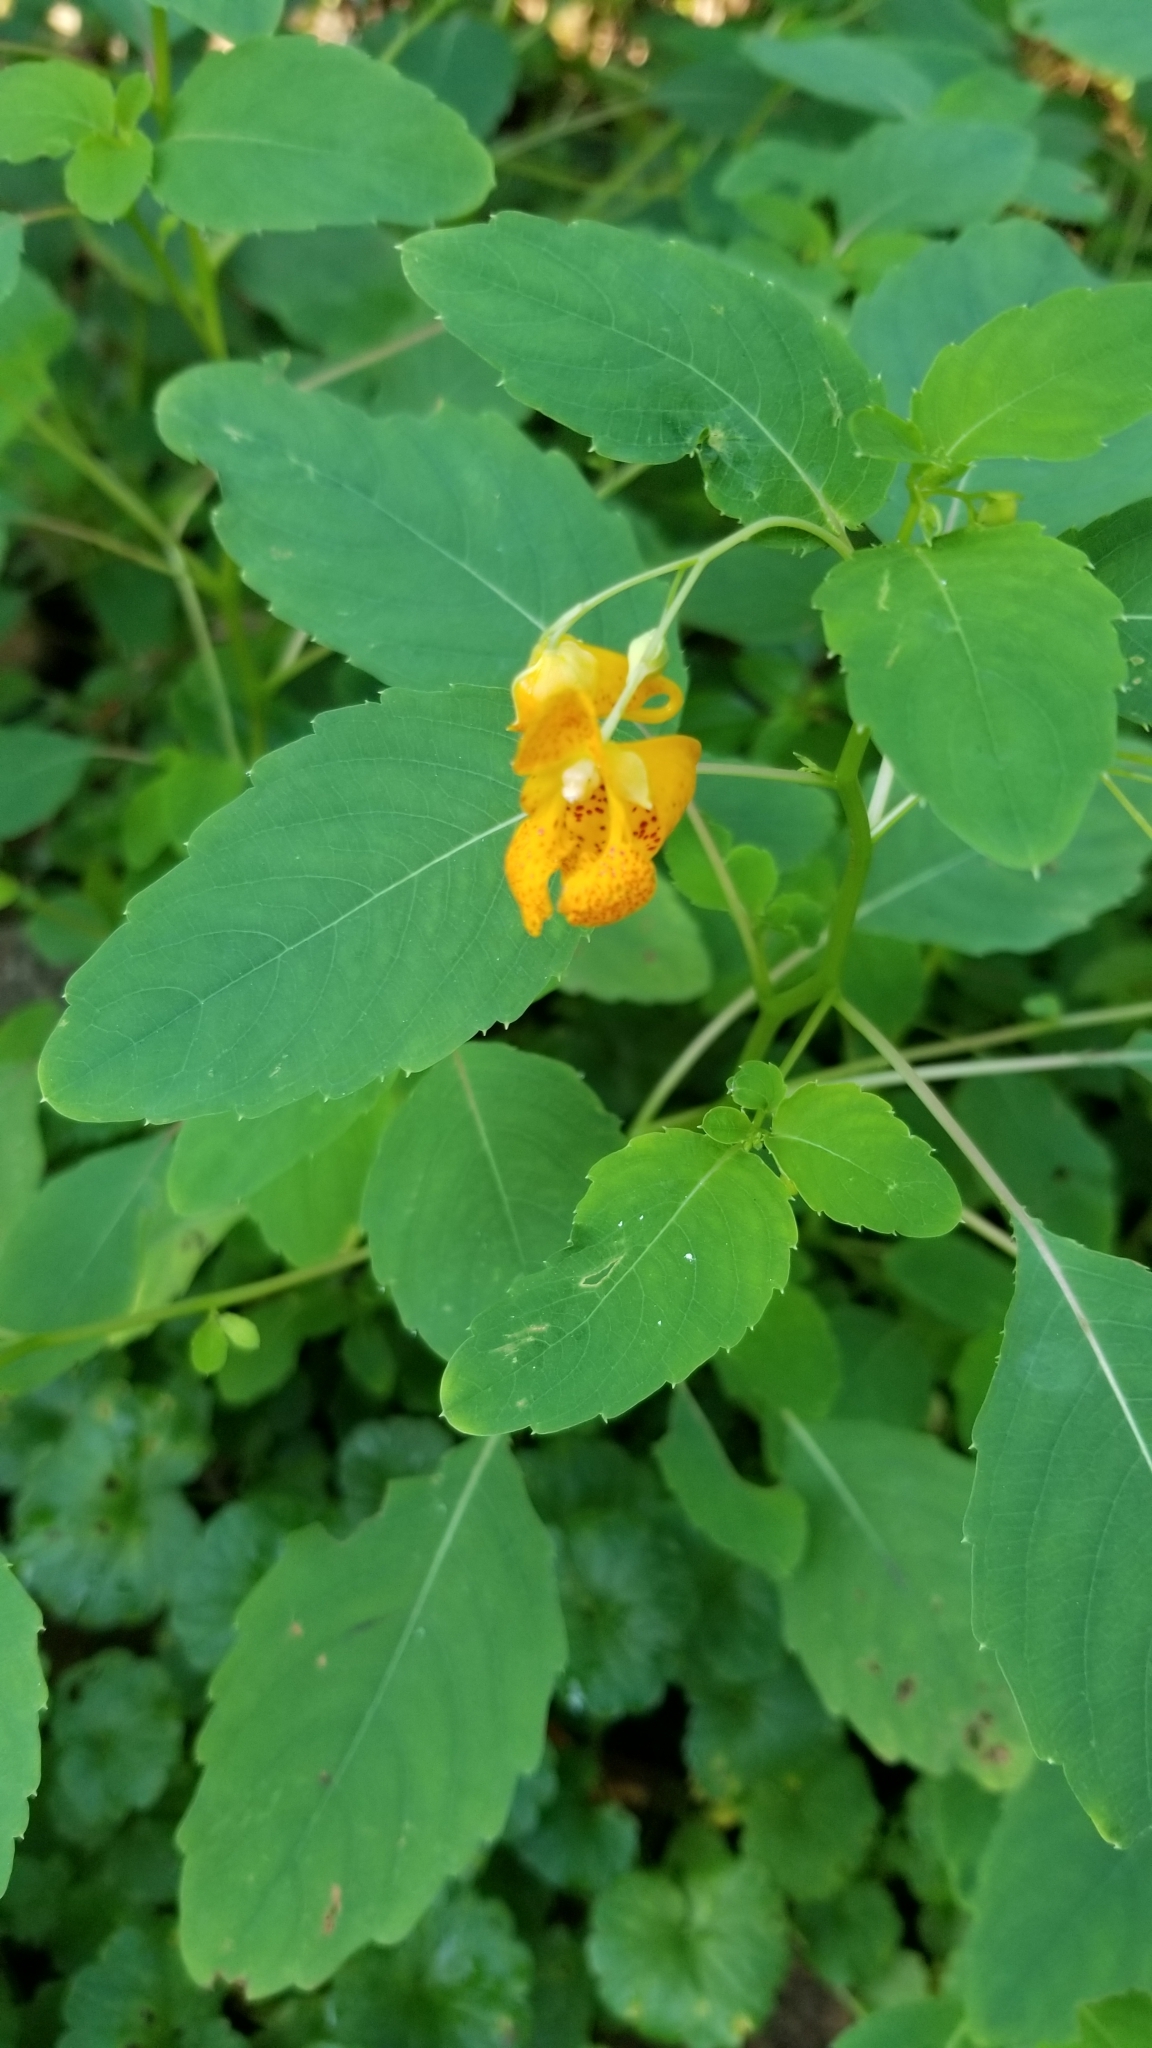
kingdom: Plantae
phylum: Tracheophyta
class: Magnoliopsida
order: Ericales
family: Balsaminaceae
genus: Impatiens
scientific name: Impatiens capensis
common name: Orange balsam
